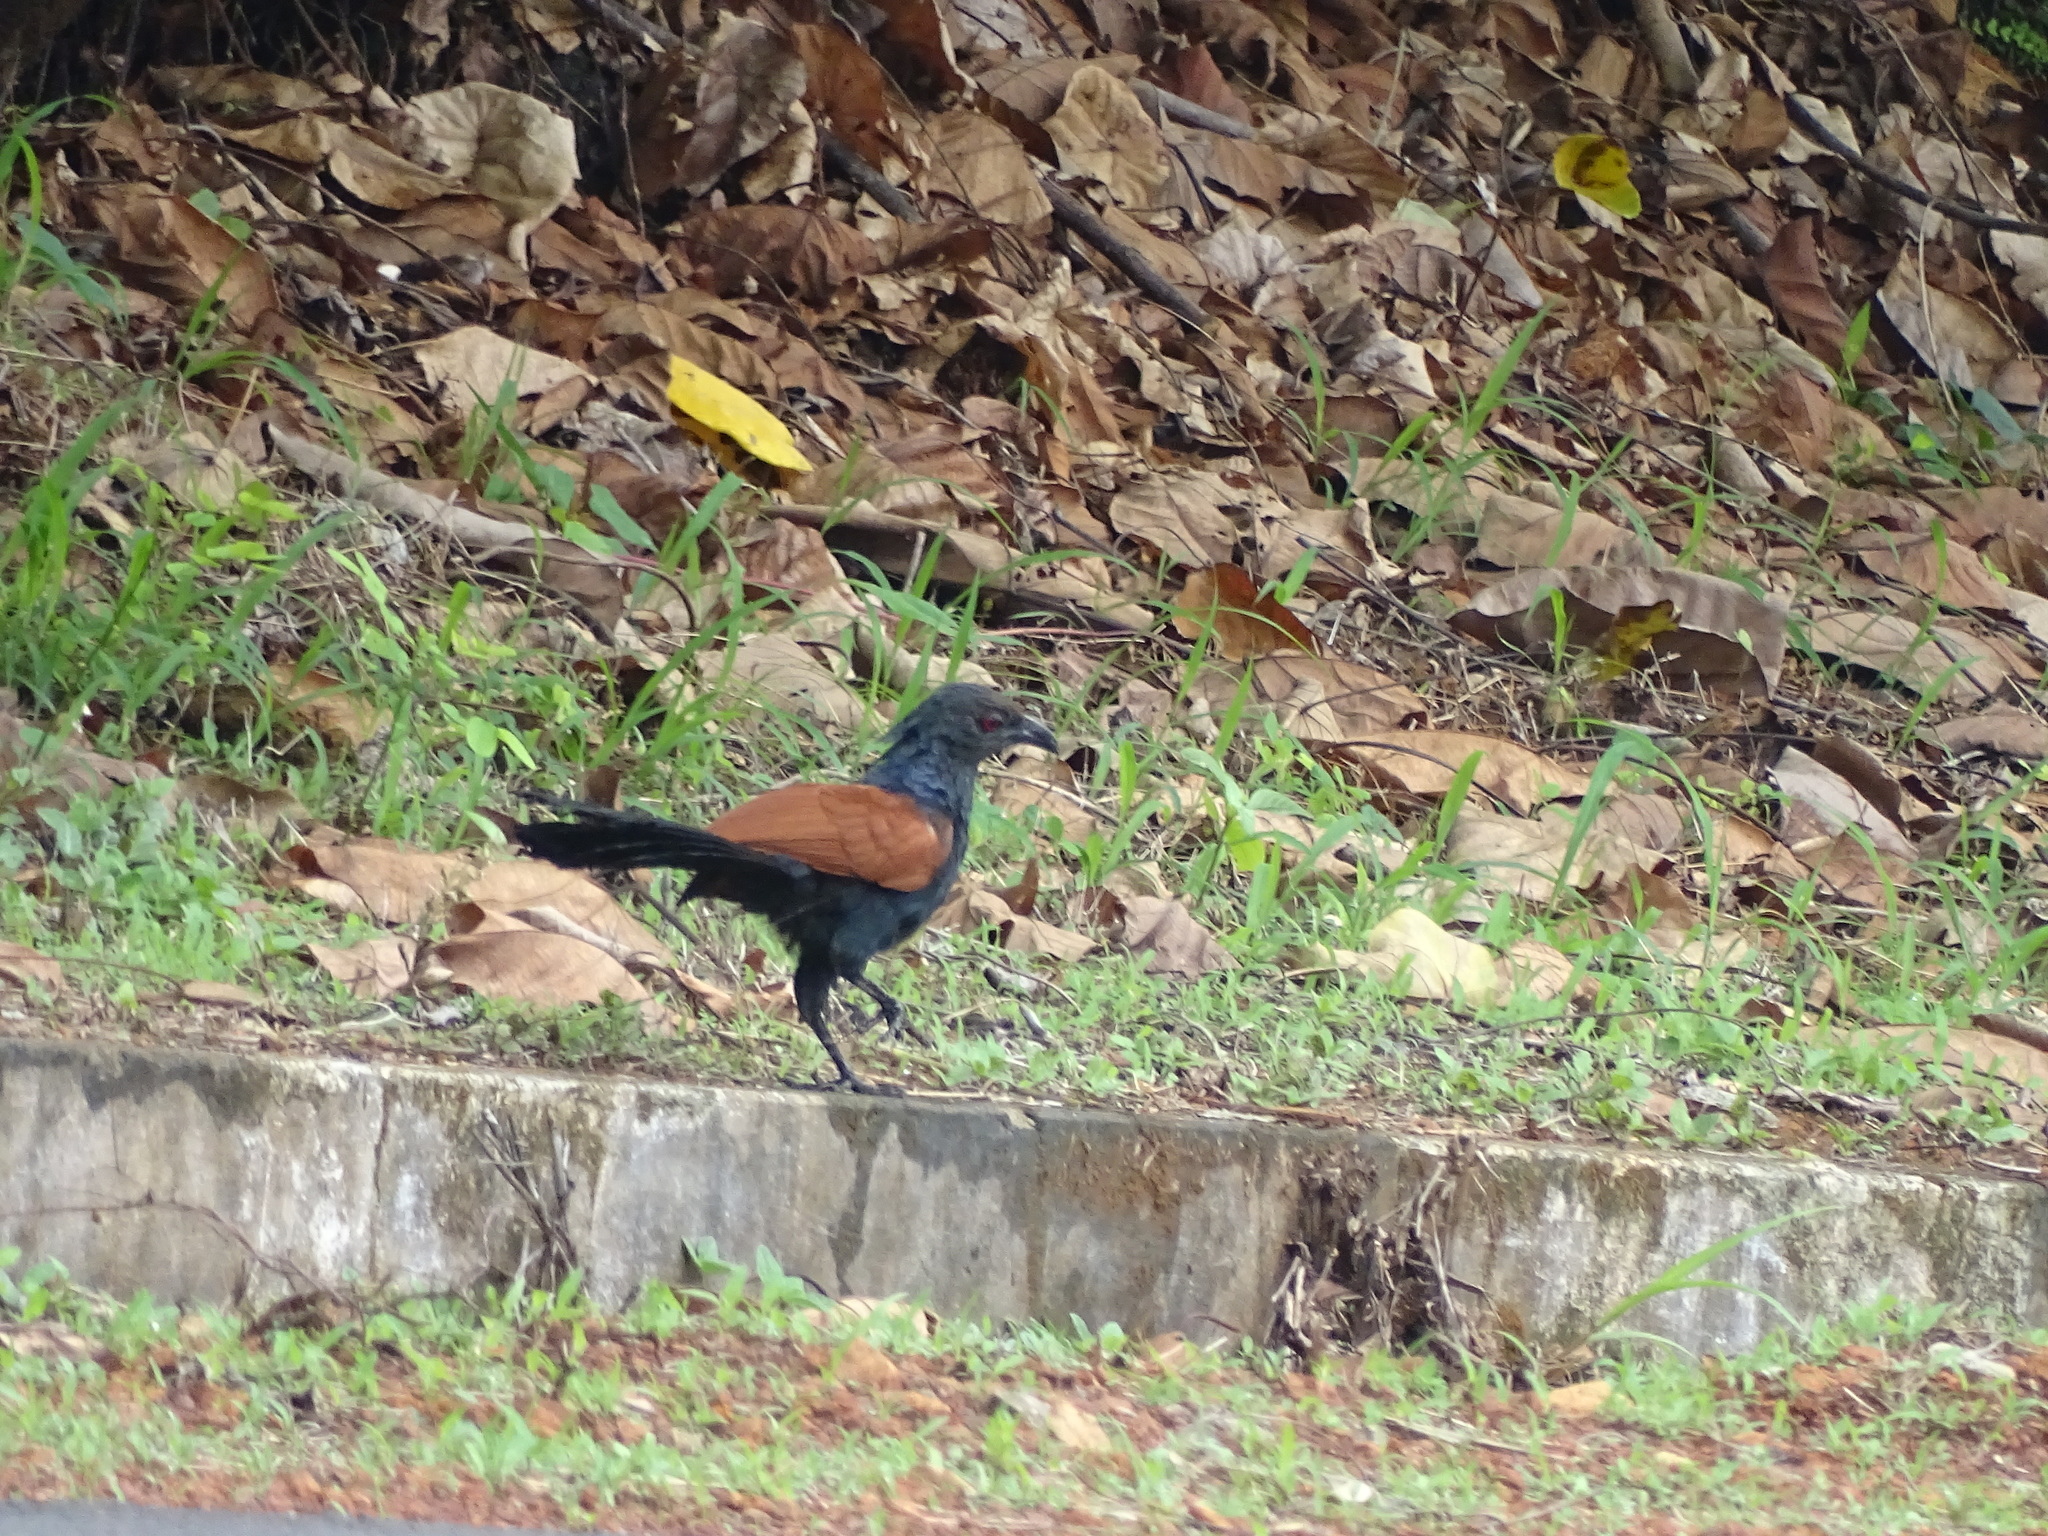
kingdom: Animalia
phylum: Chordata
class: Aves
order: Cuculiformes
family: Cuculidae
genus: Centropus
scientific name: Centropus sinensis
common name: Greater coucal
